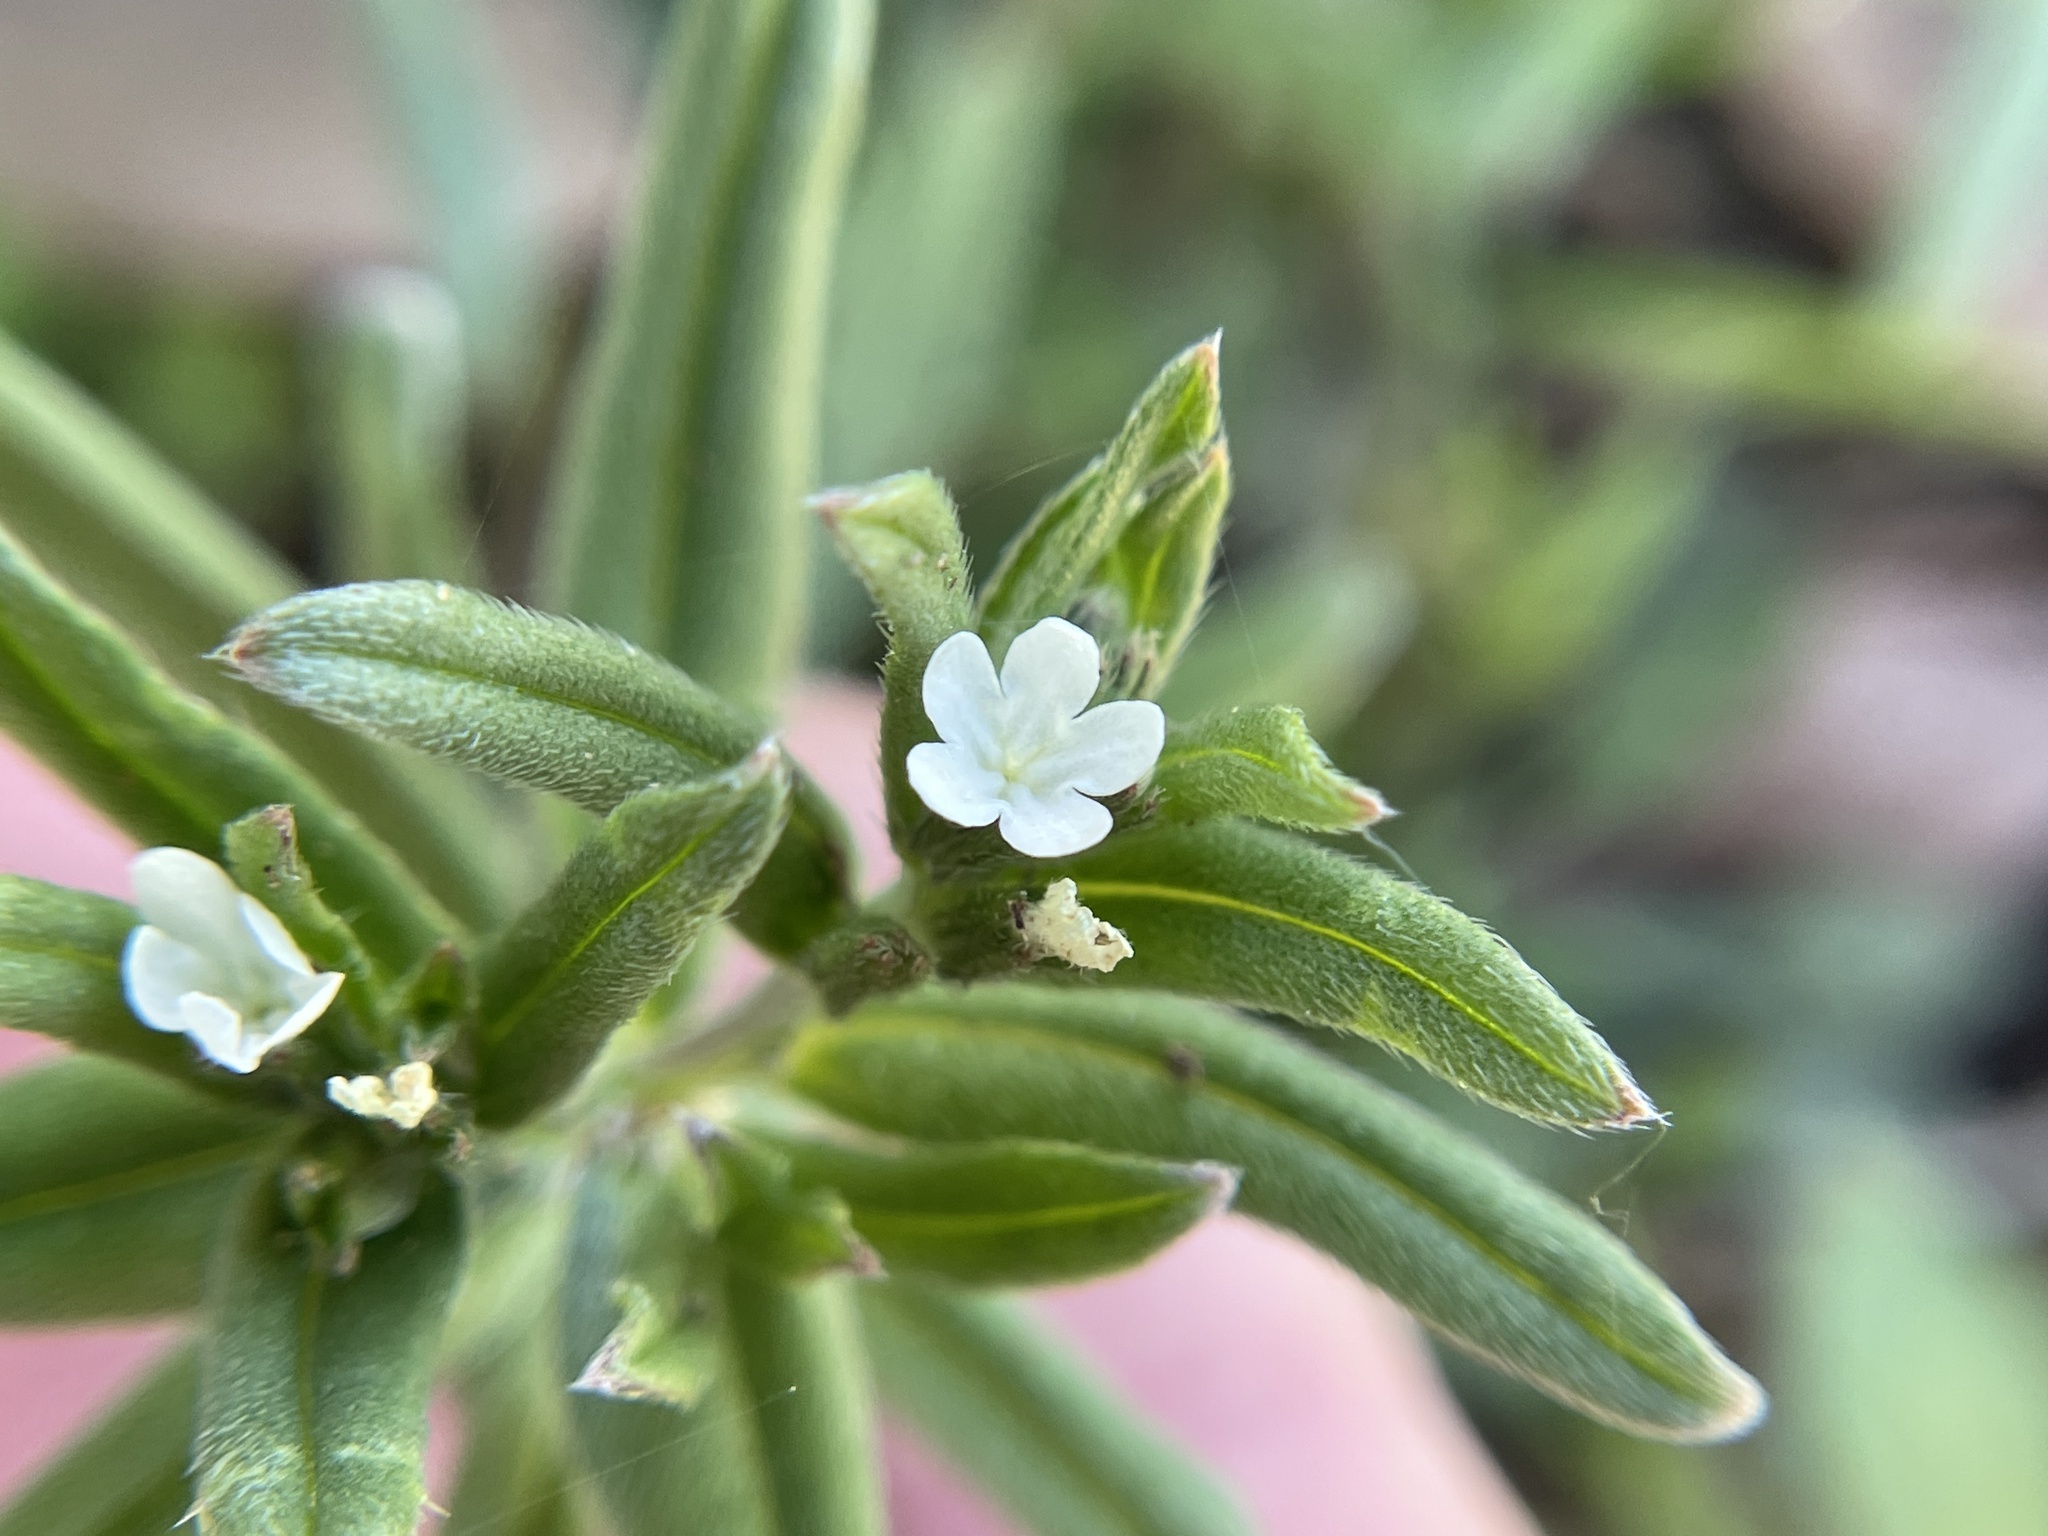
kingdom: Plantae
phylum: Tracheophyta
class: Magnoliopsida
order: Boraginales
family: Boraginaceae
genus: Buglossoides
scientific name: Buglossoides arvensis
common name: Corn gromwell
